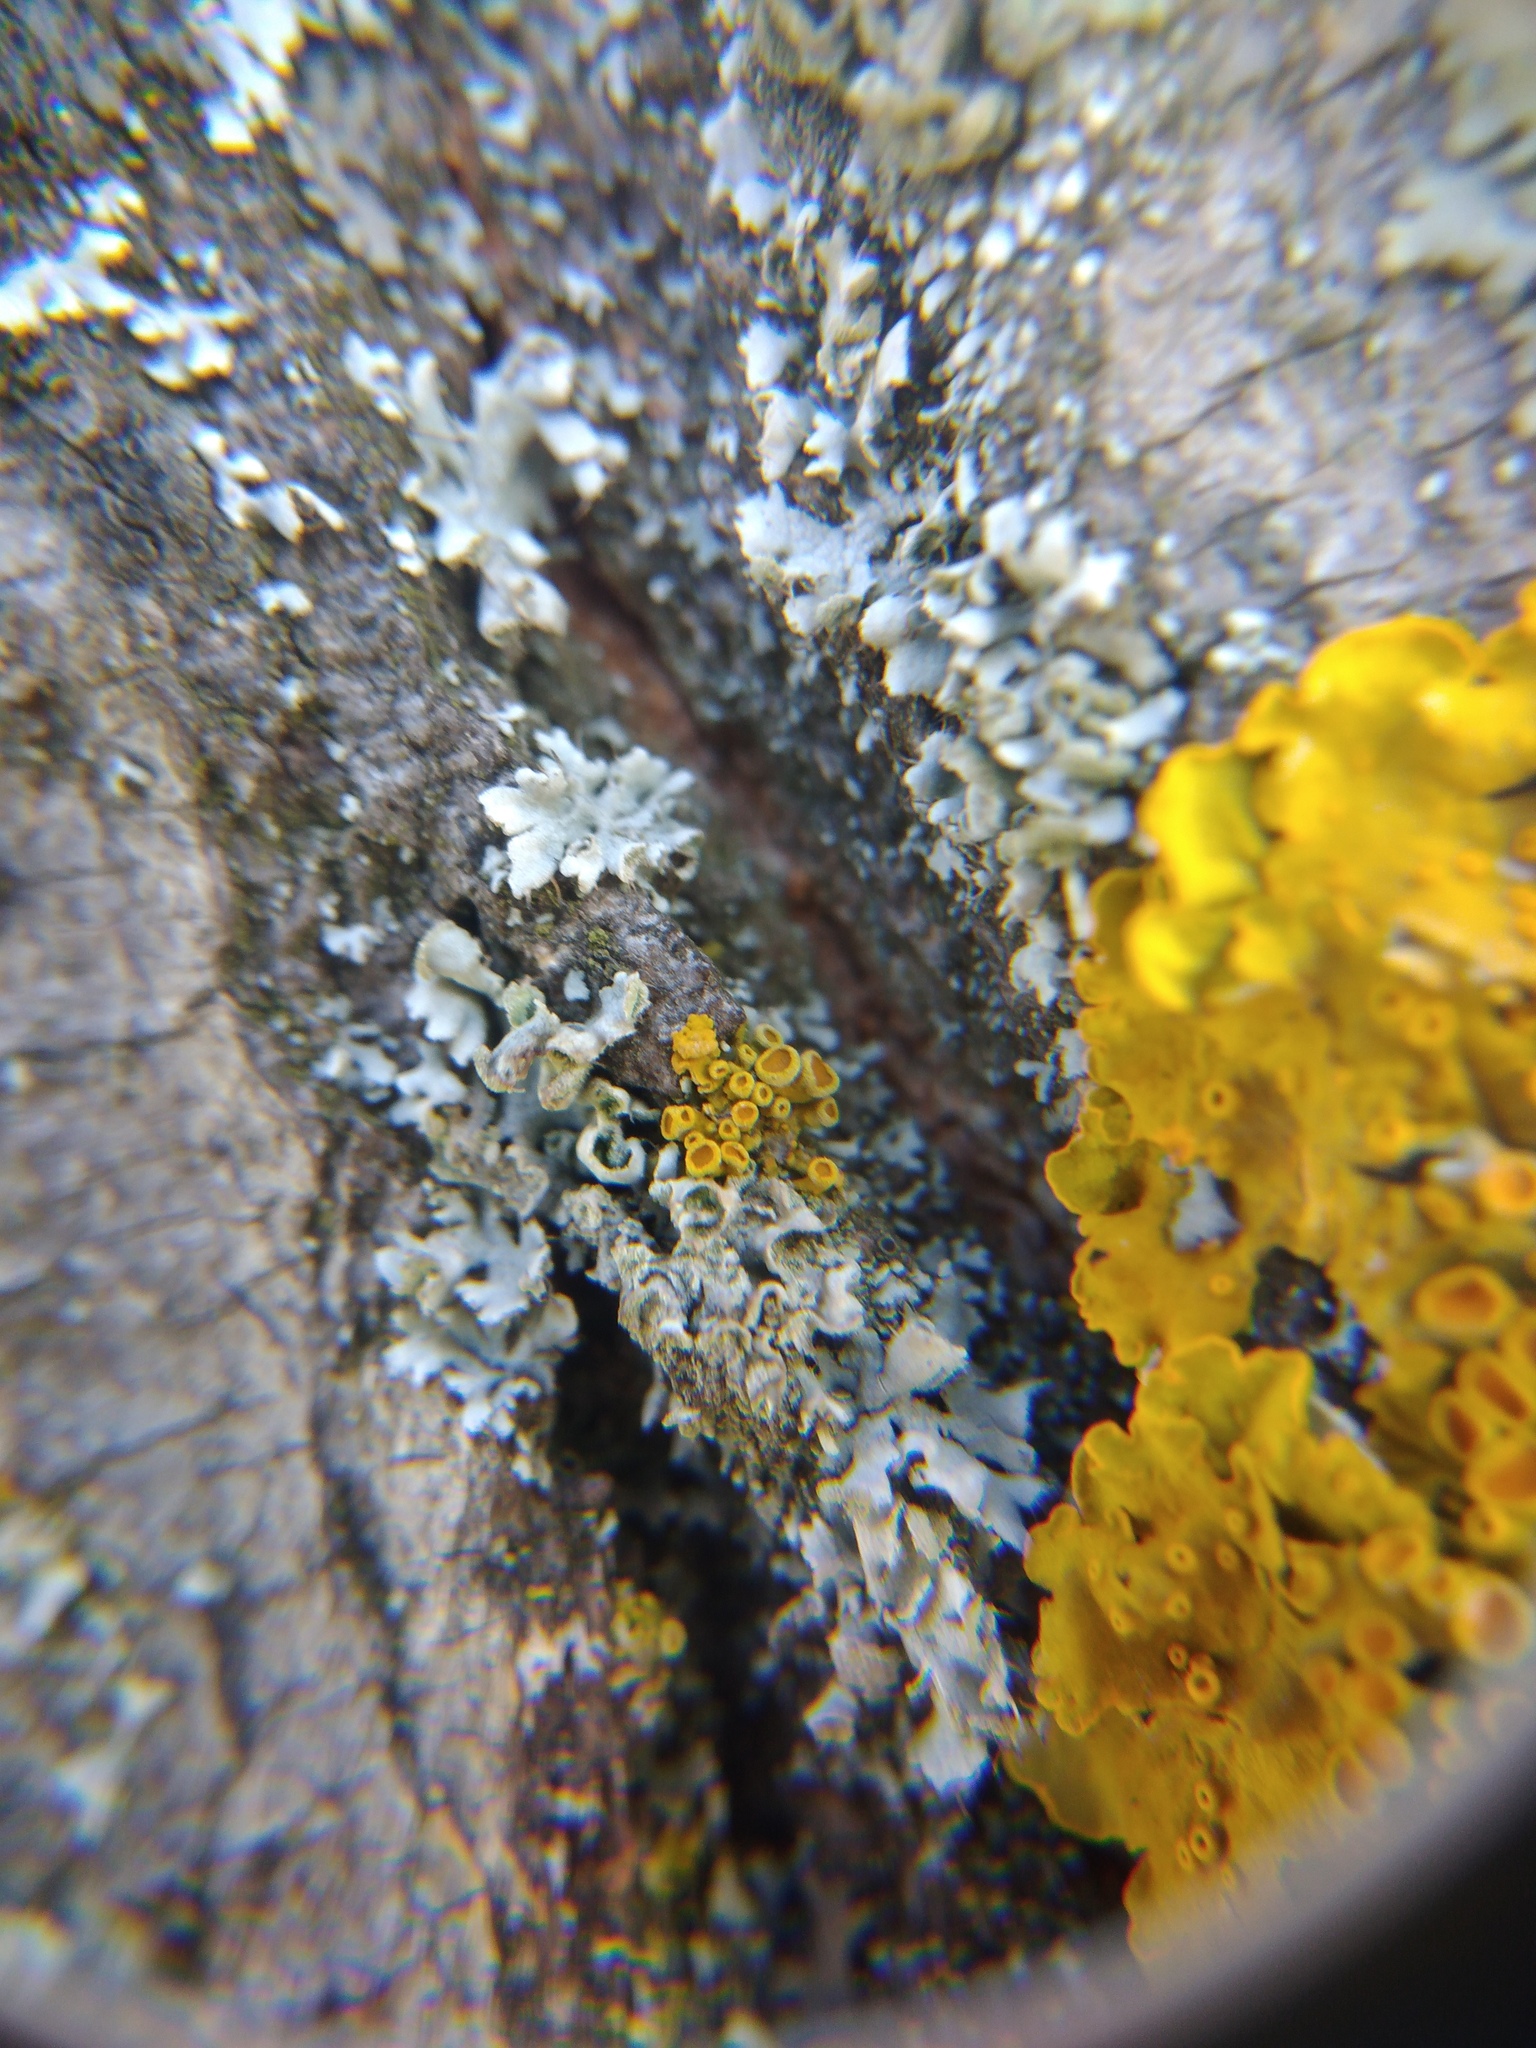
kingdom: Fungi
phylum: Ascomycota
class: Lecanoromycetes
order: Teloschistales
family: Teloschistaceae
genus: Polycauliona
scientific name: Polycauliona polycarpa
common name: Pin-cushion sunburst lichen
